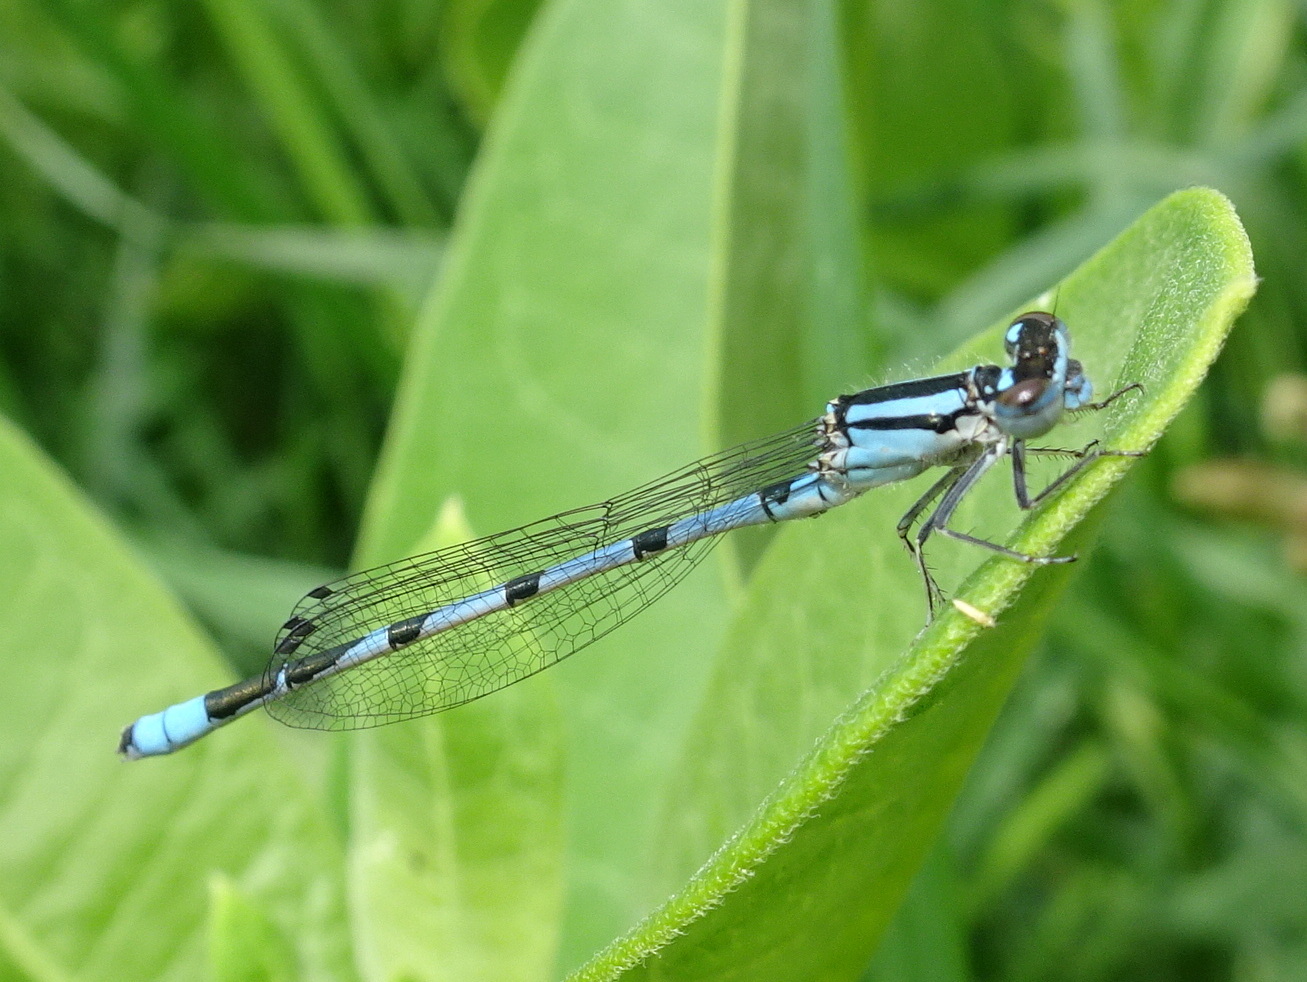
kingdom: Animalia
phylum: Arthropoda
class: Insecta
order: Odonata
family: Coenagrionidae
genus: Enallagma
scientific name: Enallagma hageni
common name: Hagen's bluet
